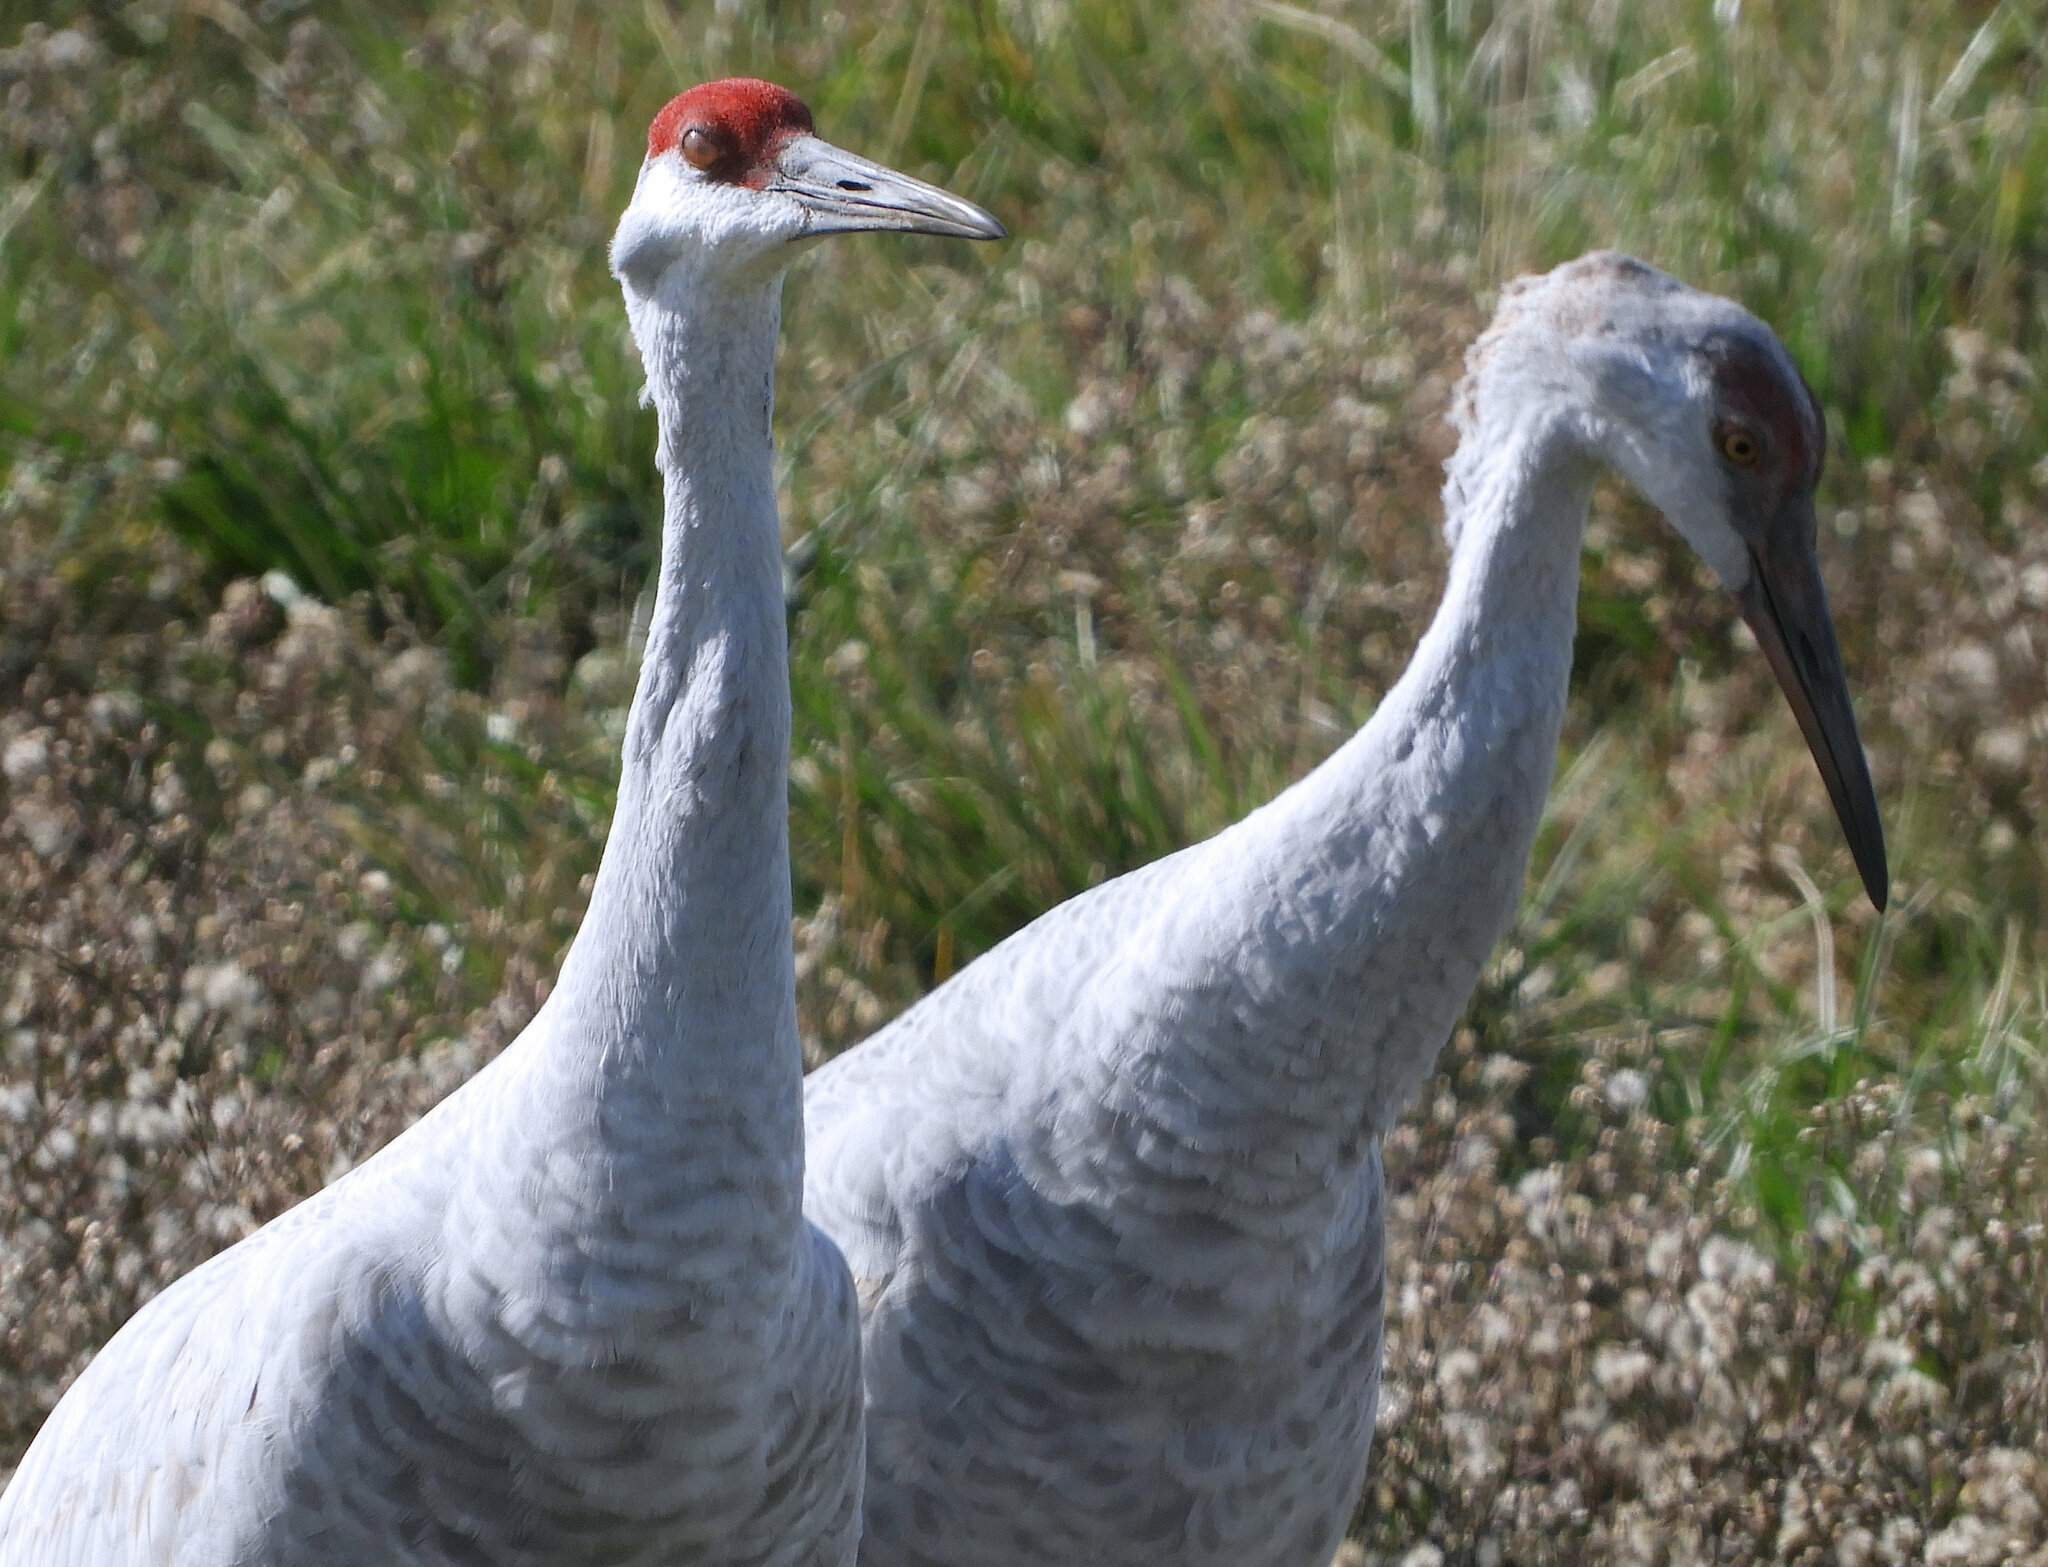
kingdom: Animalia
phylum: Chordata
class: Aves
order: Gruiformes
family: Gruidae
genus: Grus
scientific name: Grus canadensis
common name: Sandhill crane
